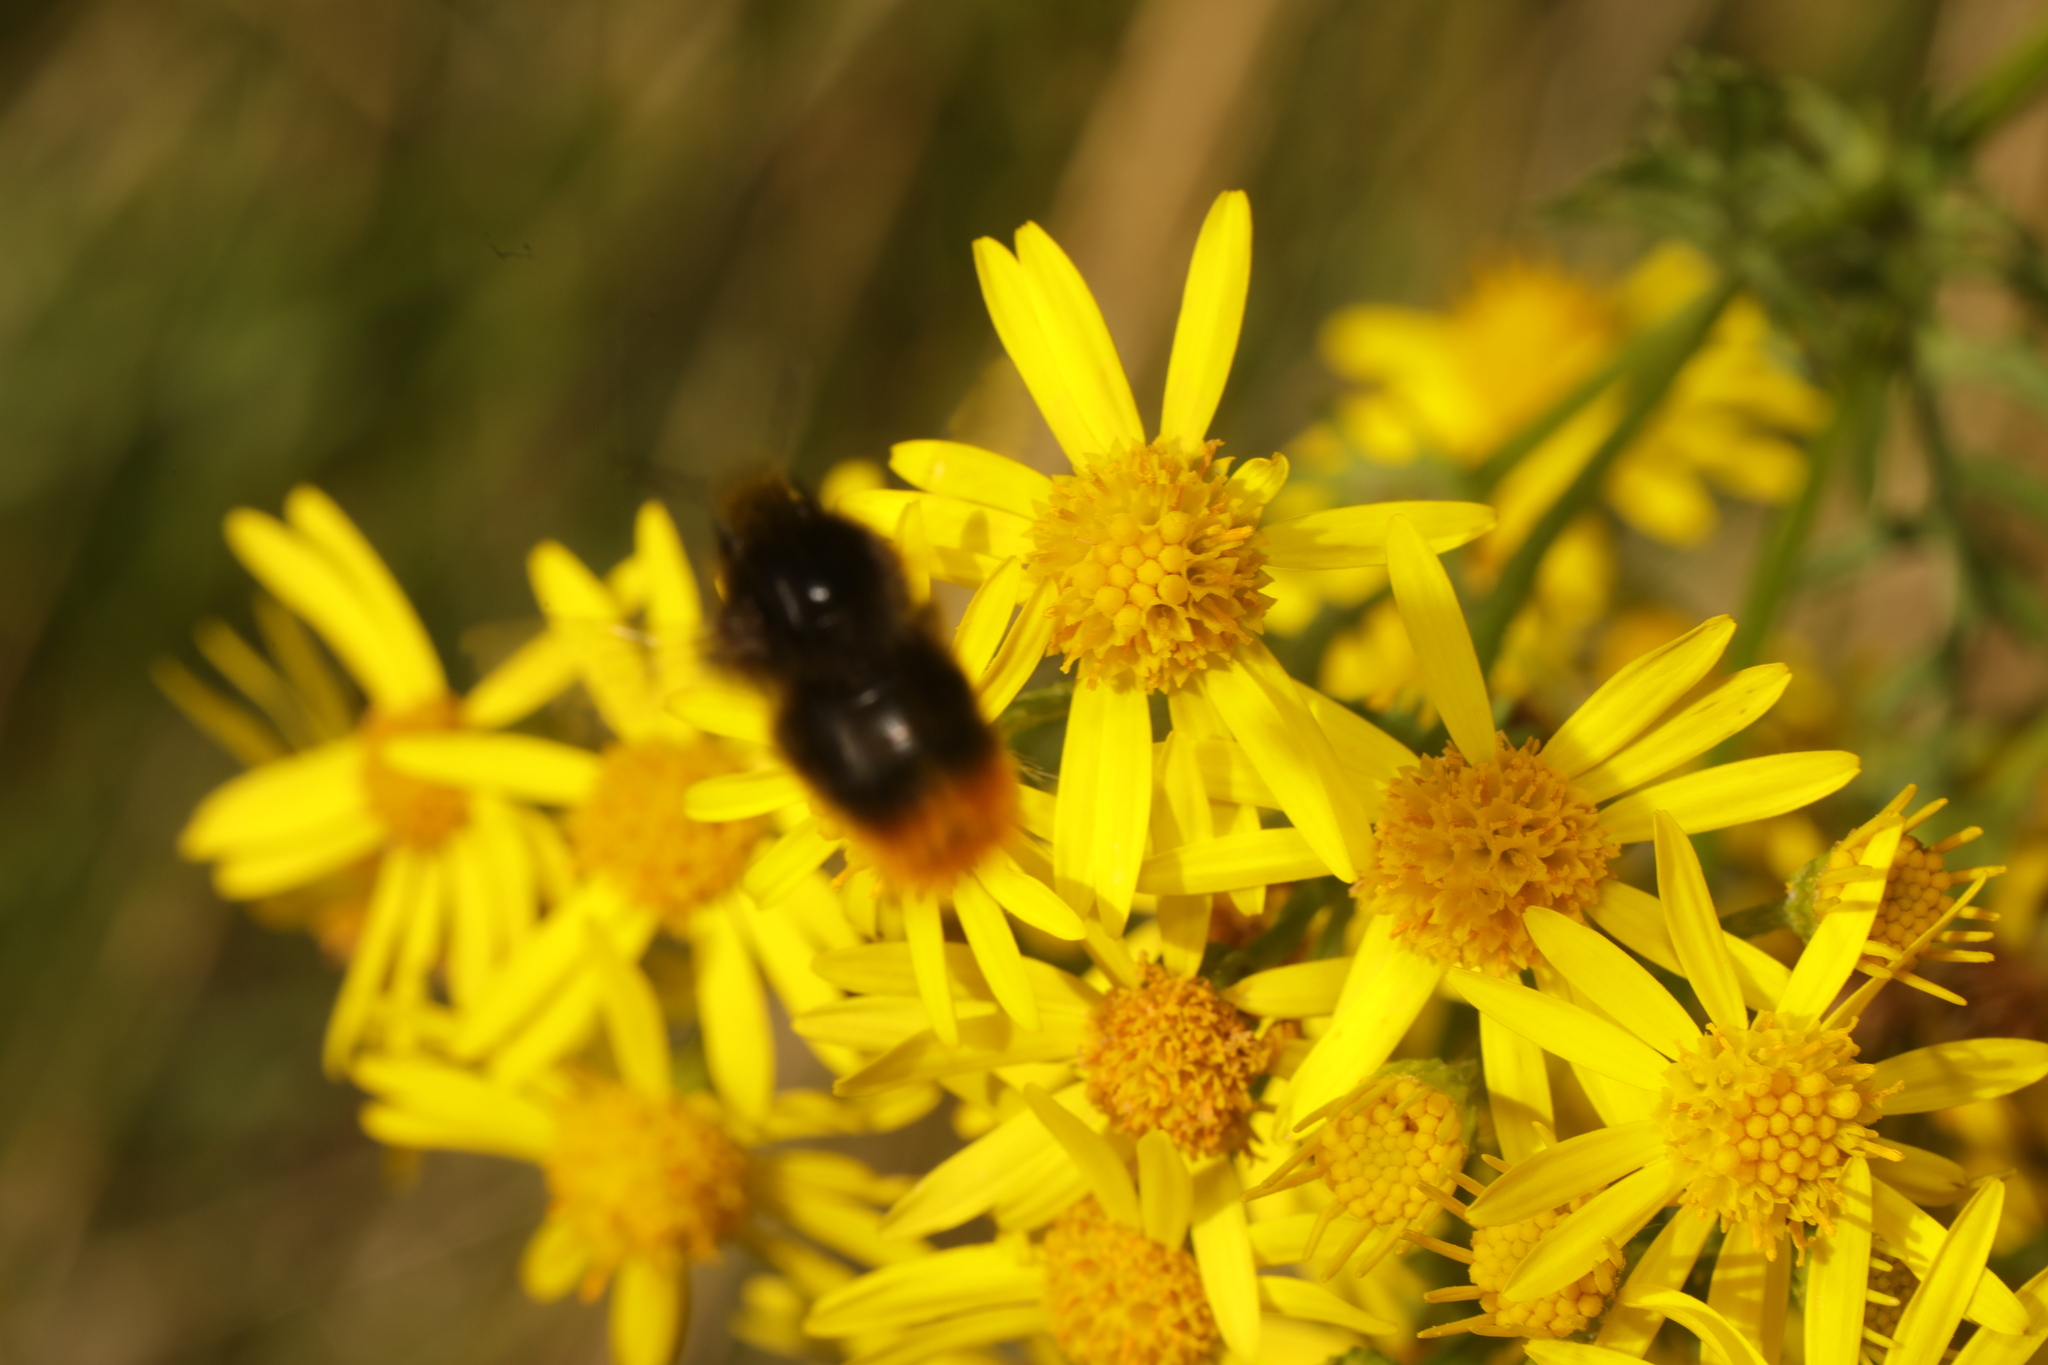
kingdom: Animalia
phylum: Arthropoda
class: Insecta
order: Hymenoptera
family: Apidae
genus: Bombus
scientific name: Bombus lapidarius
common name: Large red-tailed humble-bee
